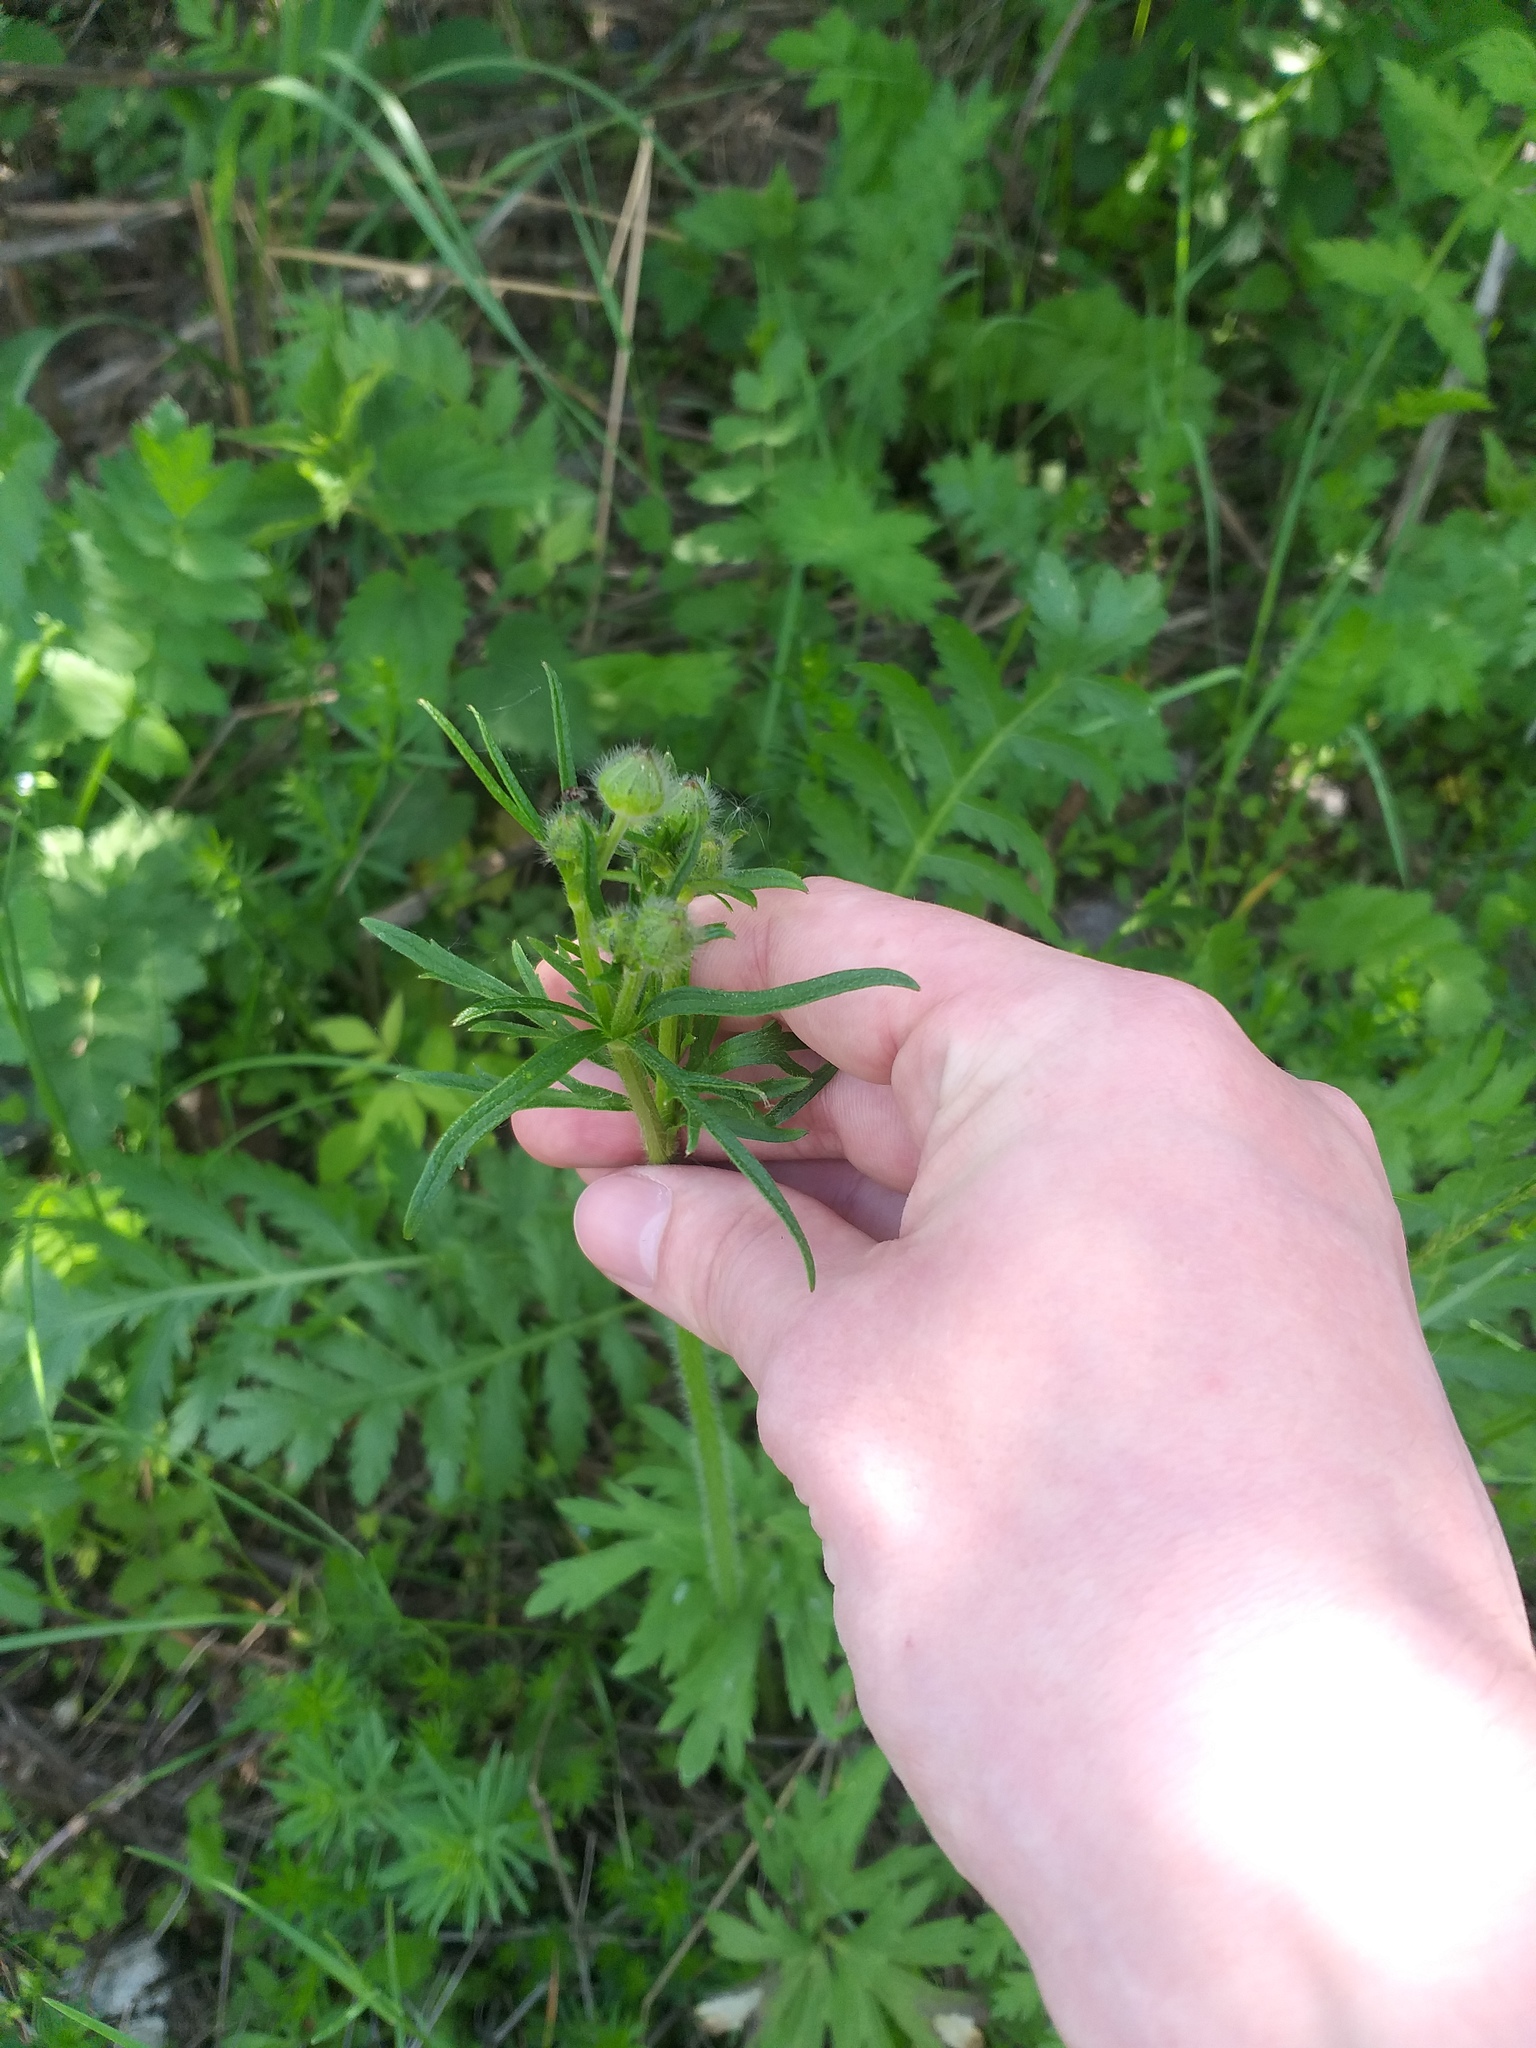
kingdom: Plantae
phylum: Tracheophyta
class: Magnoliopsida
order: Ranunculales
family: Ranunculaceae
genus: Ranunculus
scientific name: Ranunculus polyanthemos
